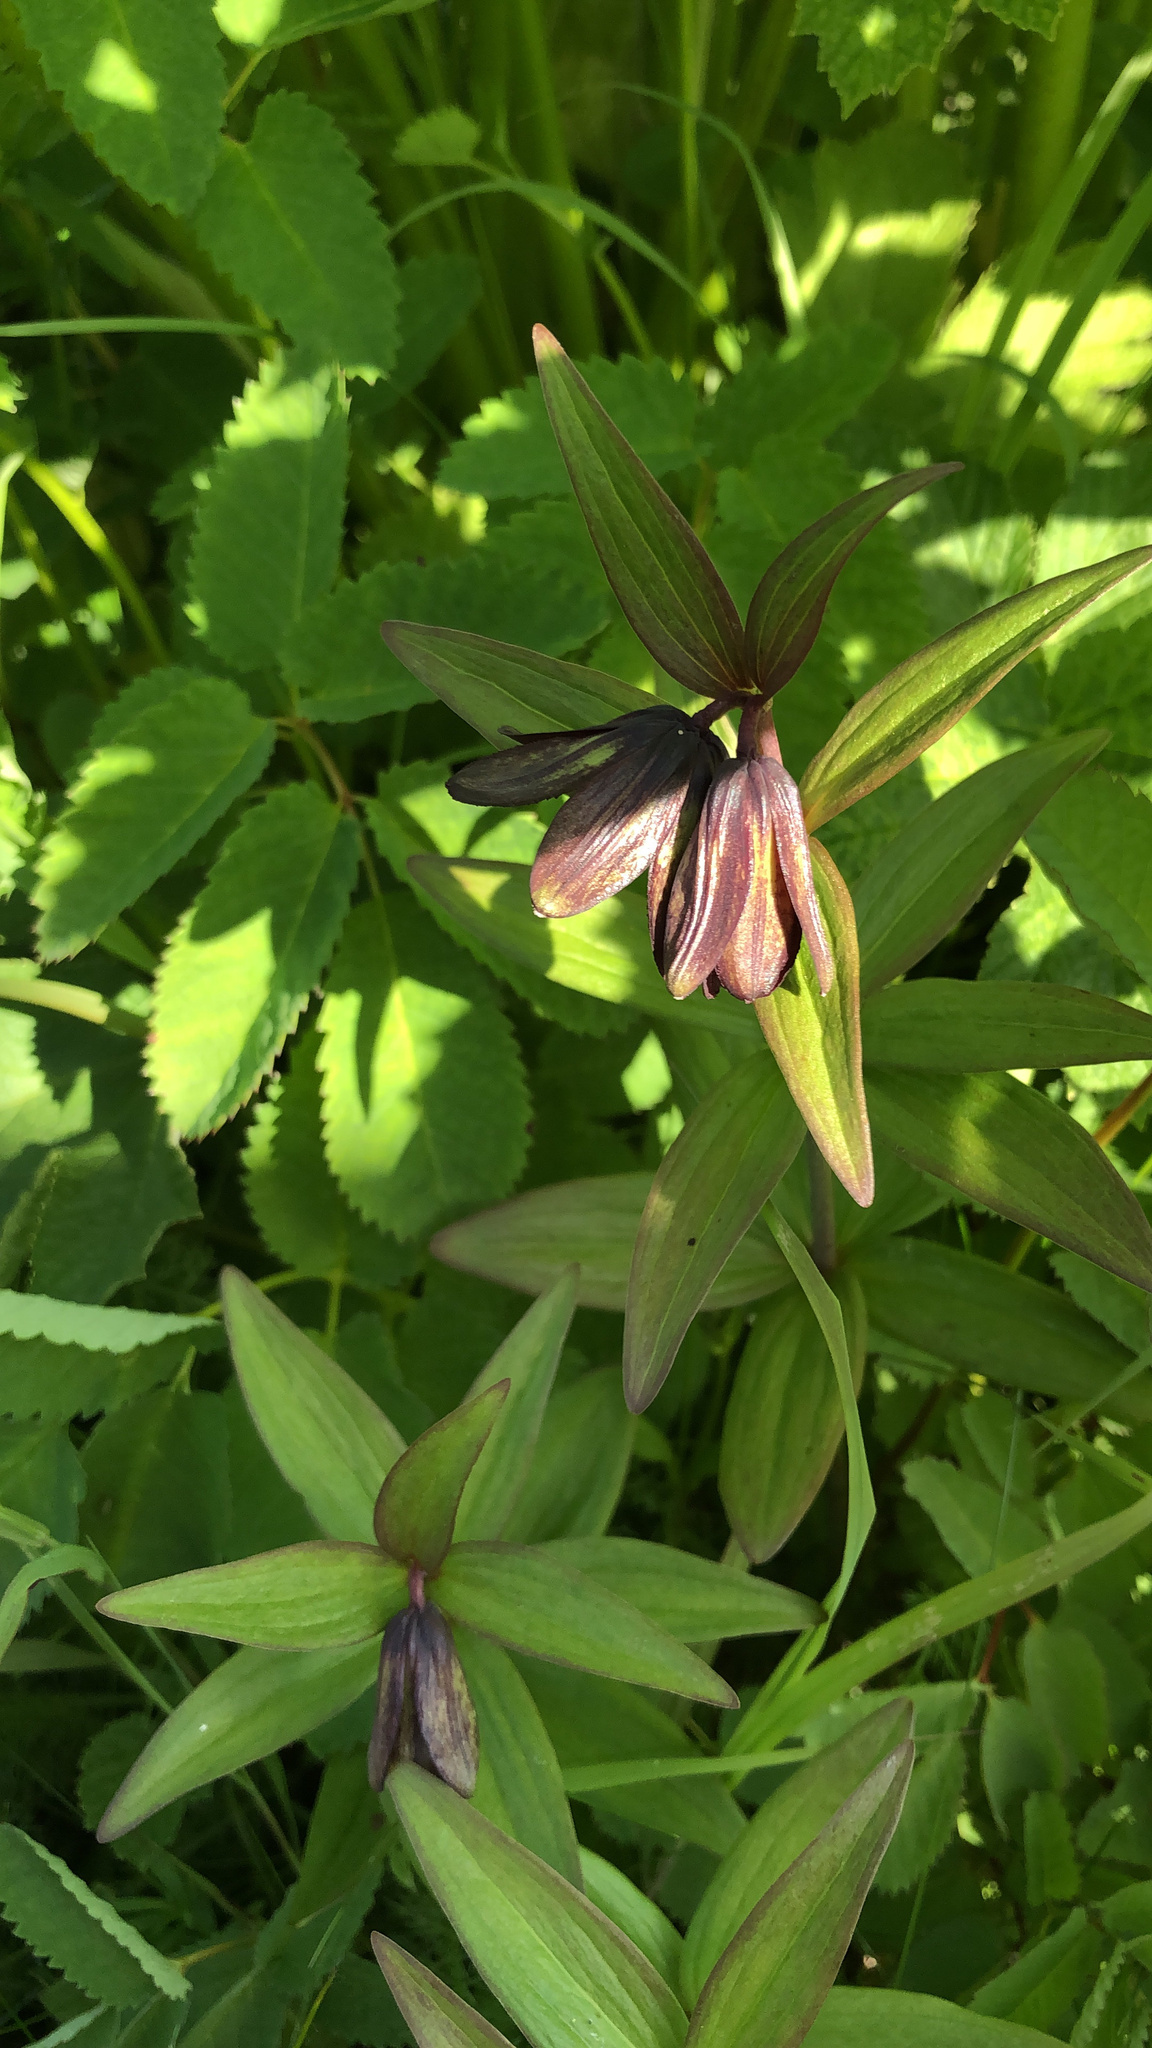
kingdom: Plantae
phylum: Tracheophyta
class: Liliopsida
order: Liliales
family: Liliaceae
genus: Fritillaria
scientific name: Fritillaria camschatcensis
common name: Kamchatka fritillary
